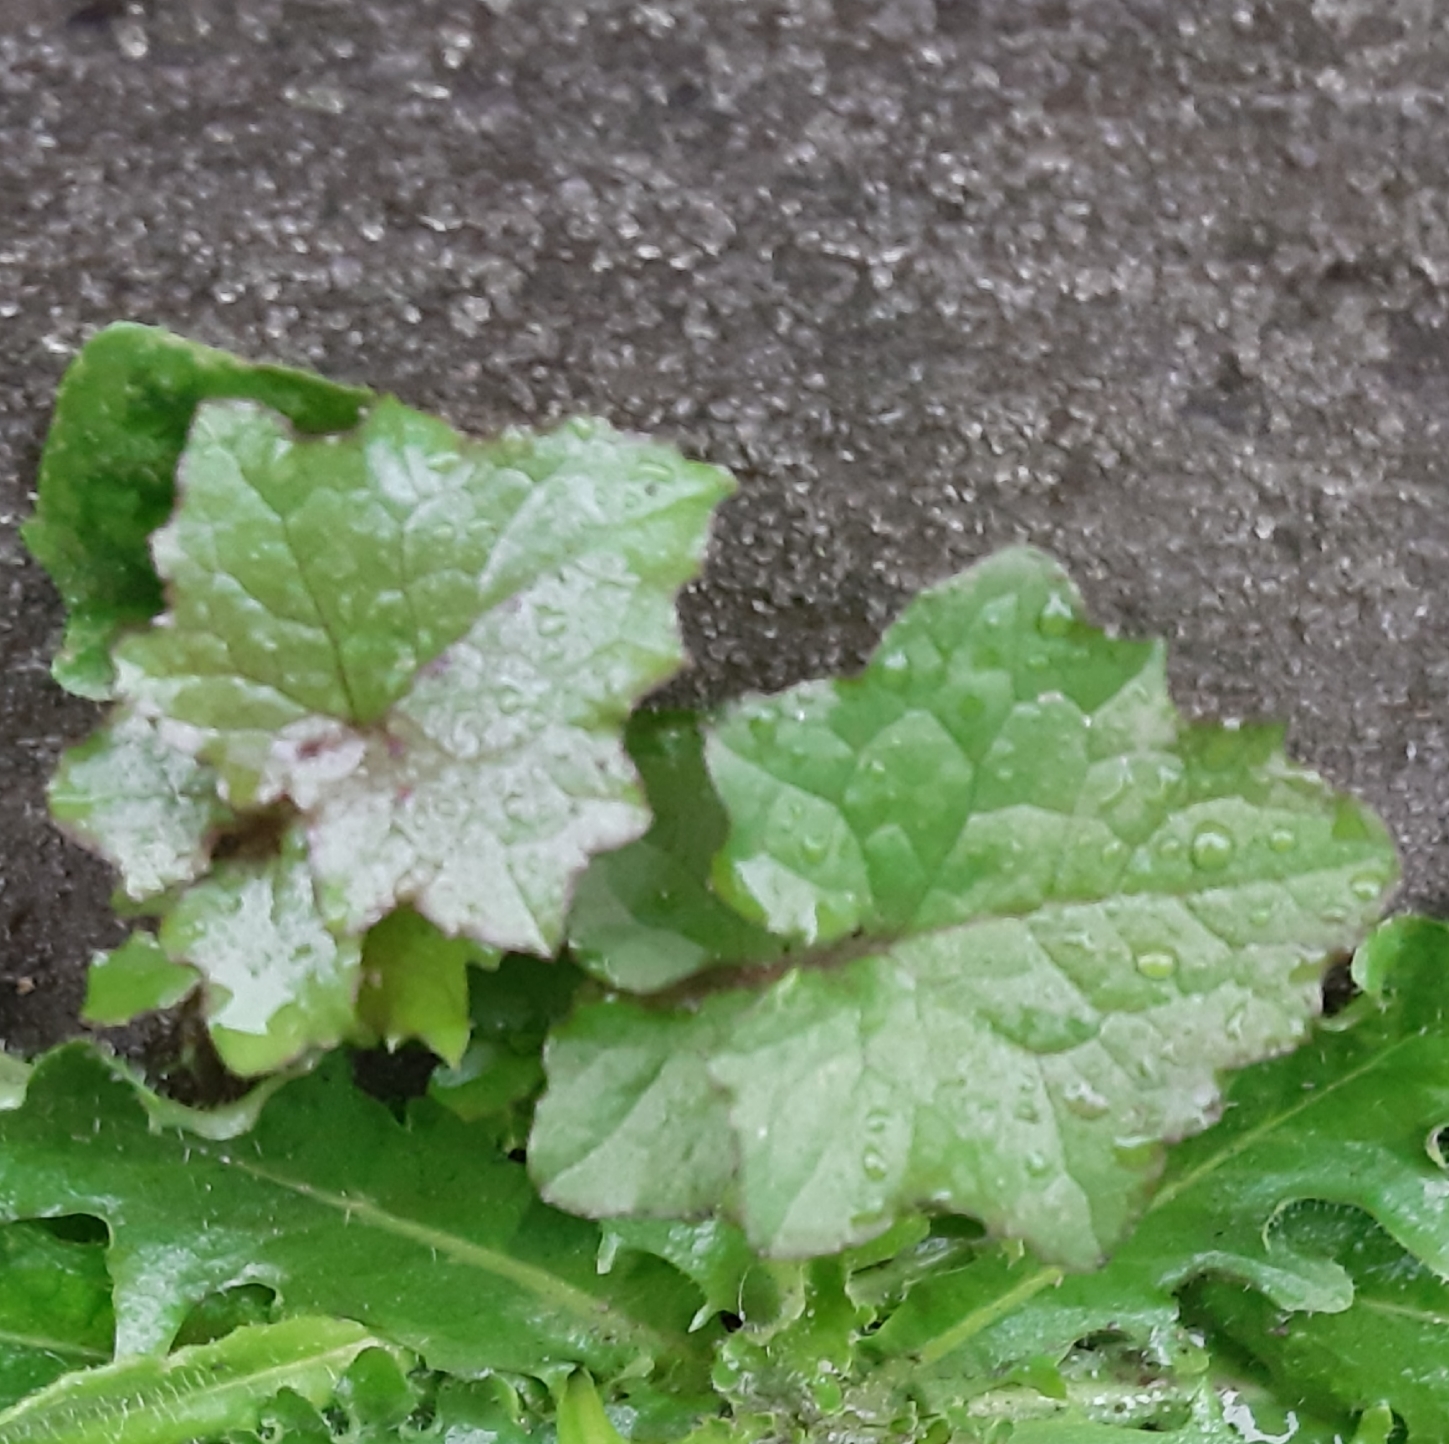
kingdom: Plantae
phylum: Tracheophyta
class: Magnoliopsida
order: Asterales
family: Asteraceae
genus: Mycelis
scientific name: Mycelis muralis
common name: Wall lettuce
